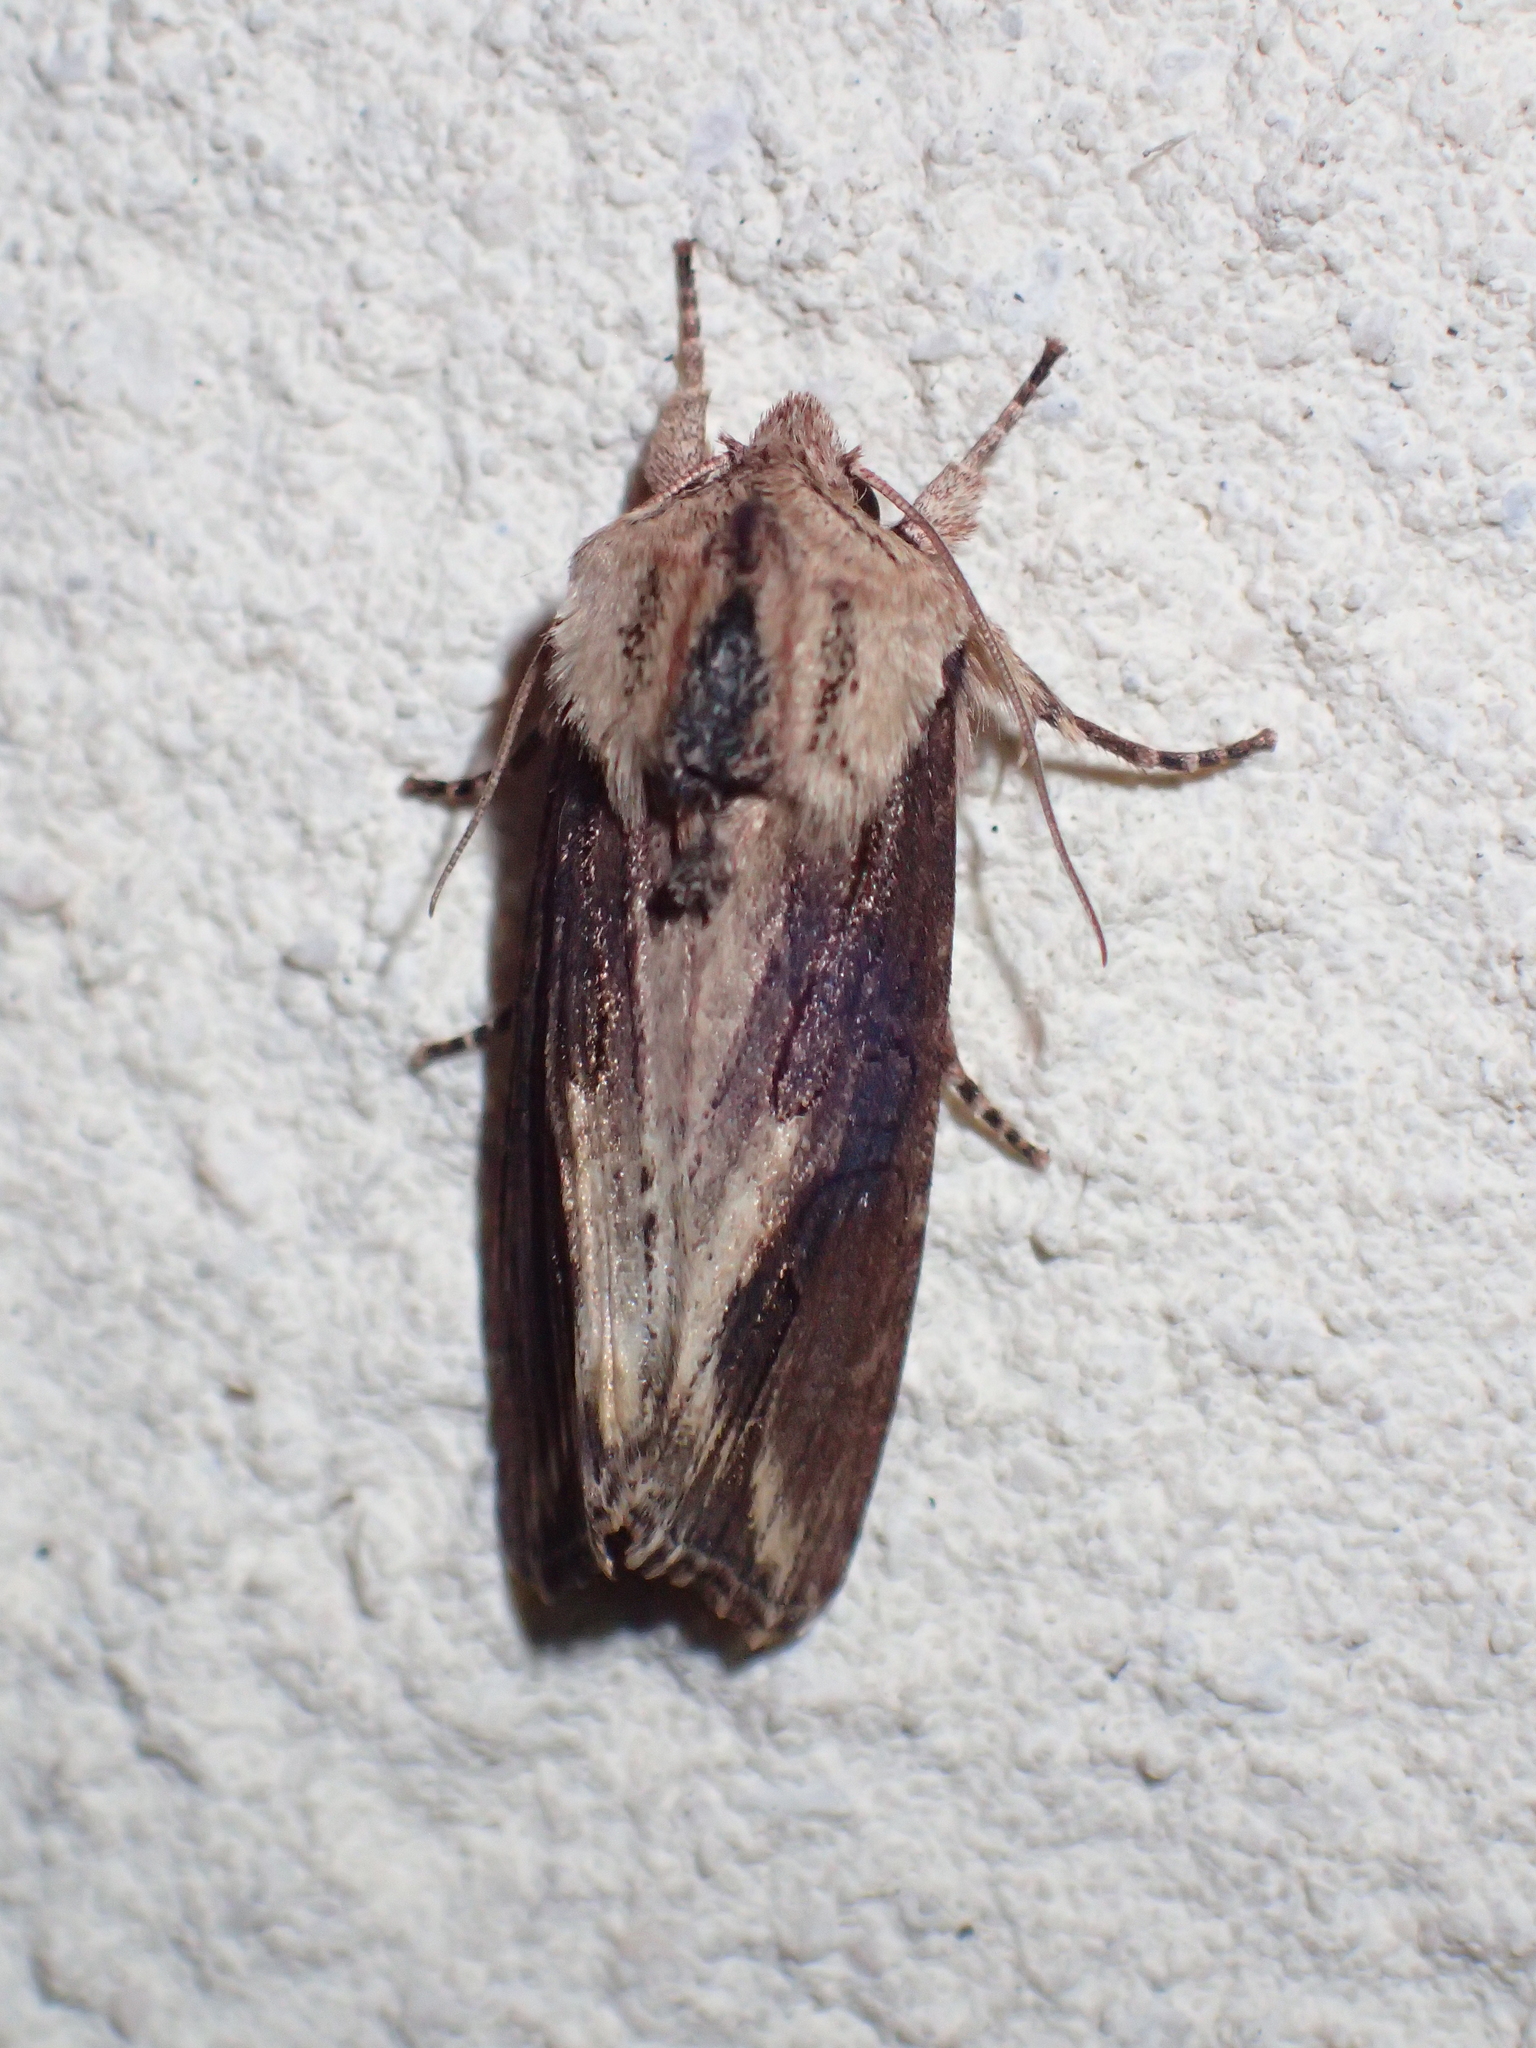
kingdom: Animalia
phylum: Arthropoda
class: Insecta
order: Lepidoptera
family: Noctuidae
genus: Egira
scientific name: Egira conspicillaris
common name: Silver cloud
